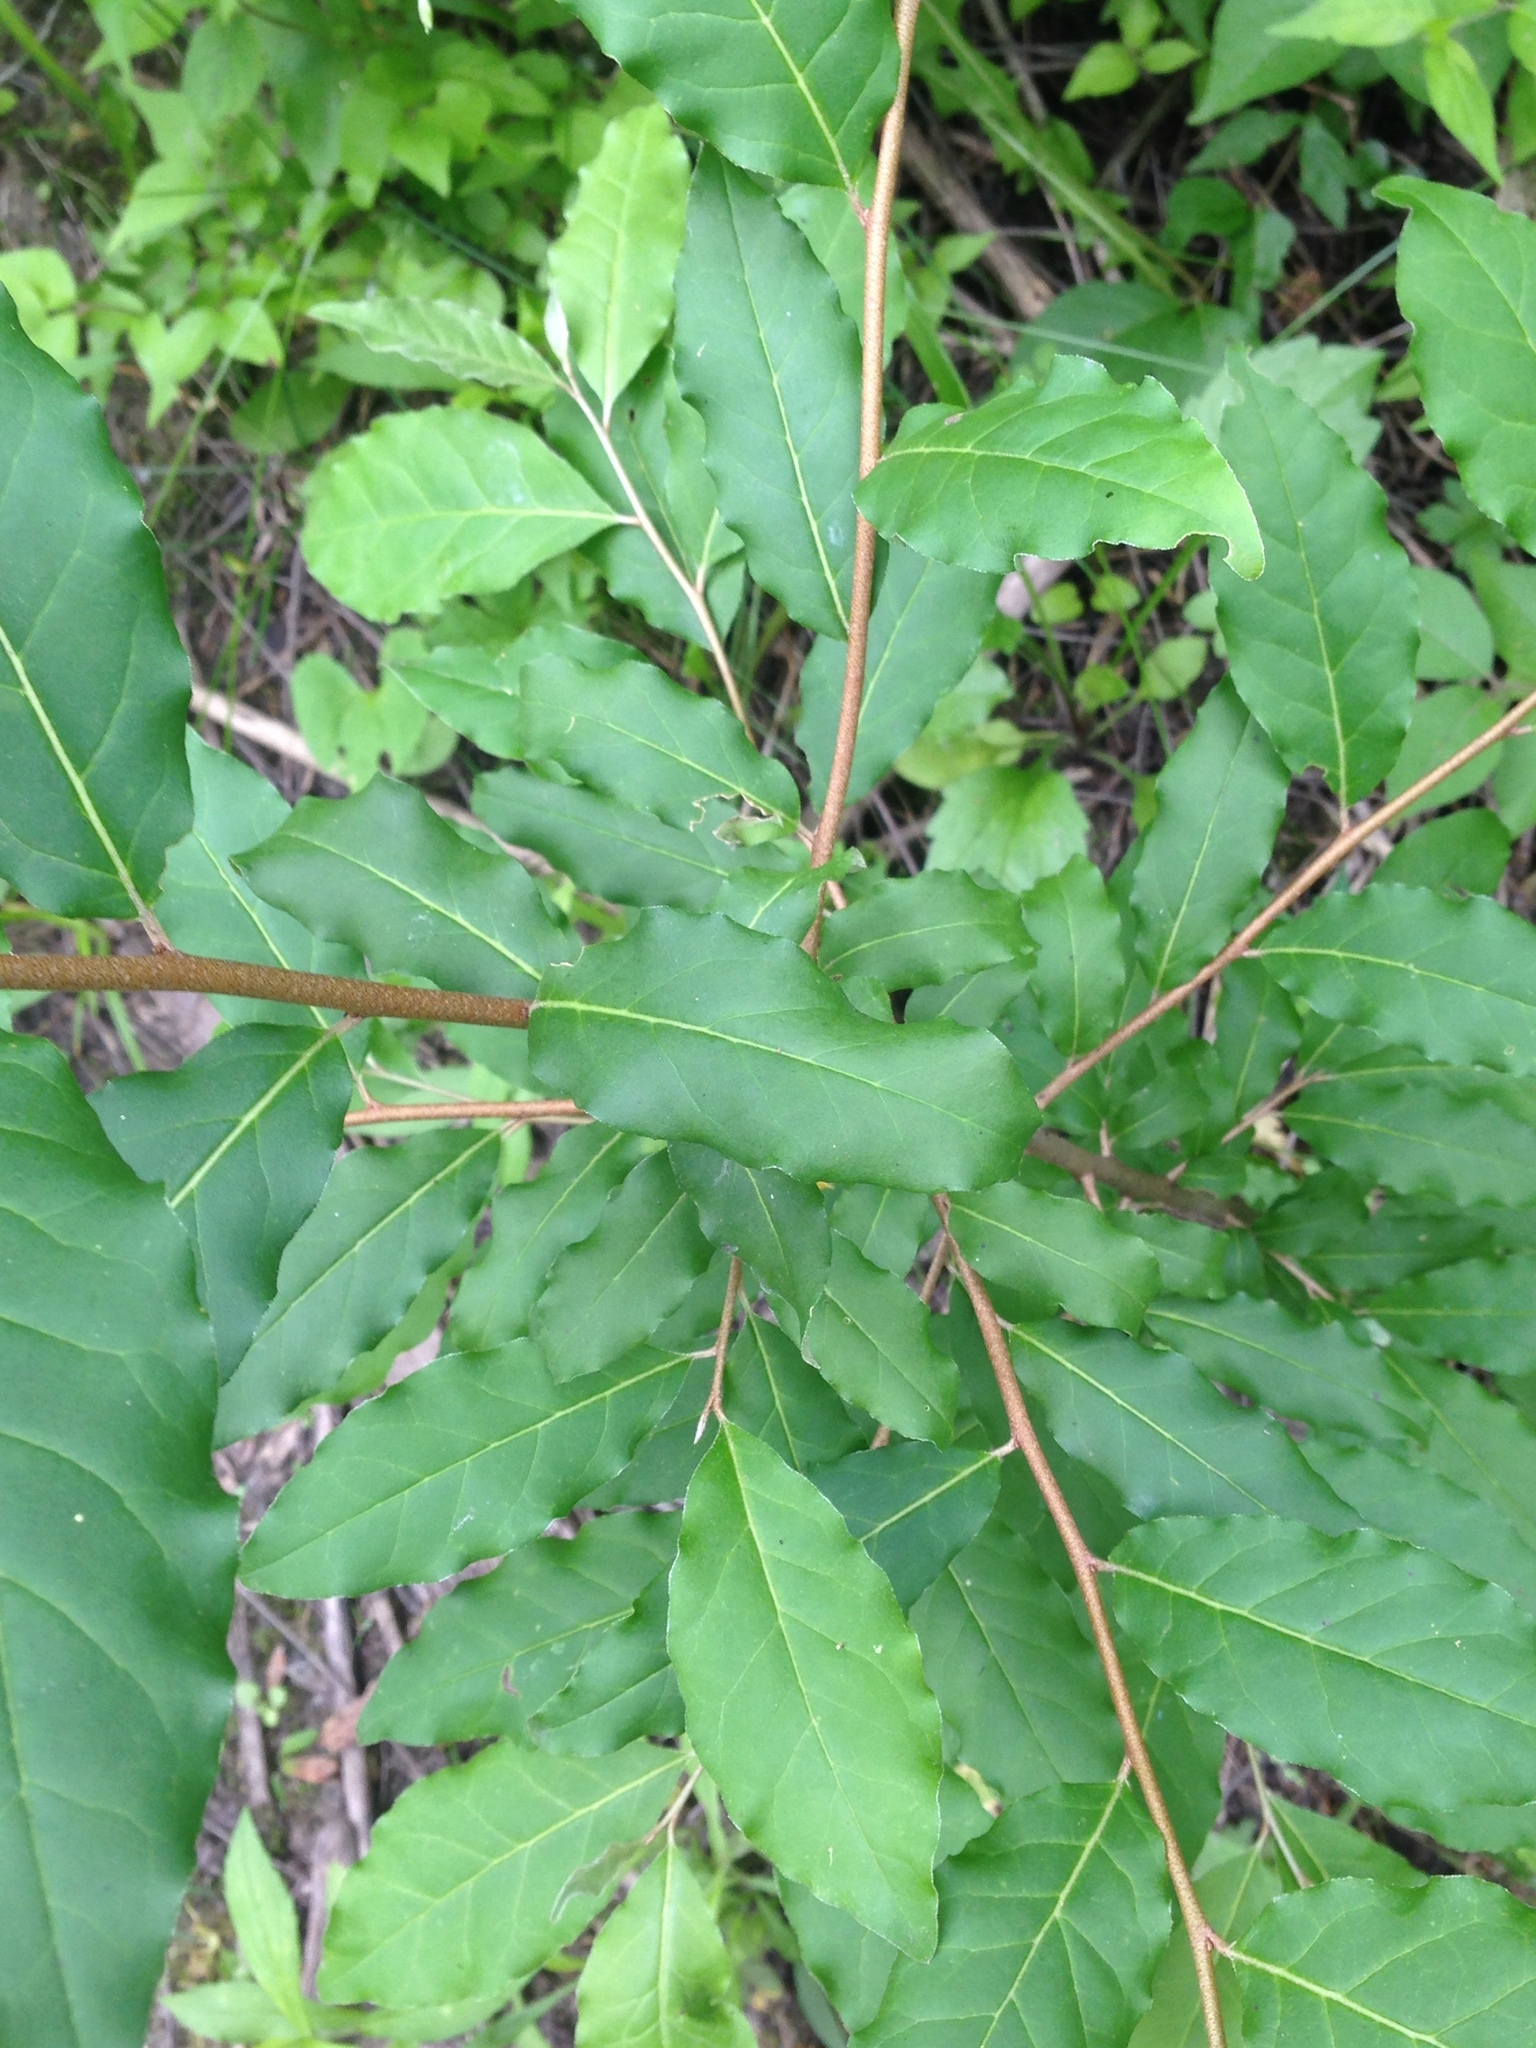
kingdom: Plantae
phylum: Tracheophyta
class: Magnoliopsida
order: Rosales
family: Elaeagnaceae
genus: Elaeagnus
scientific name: Elaeagnus umbellata
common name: Autumn olive
